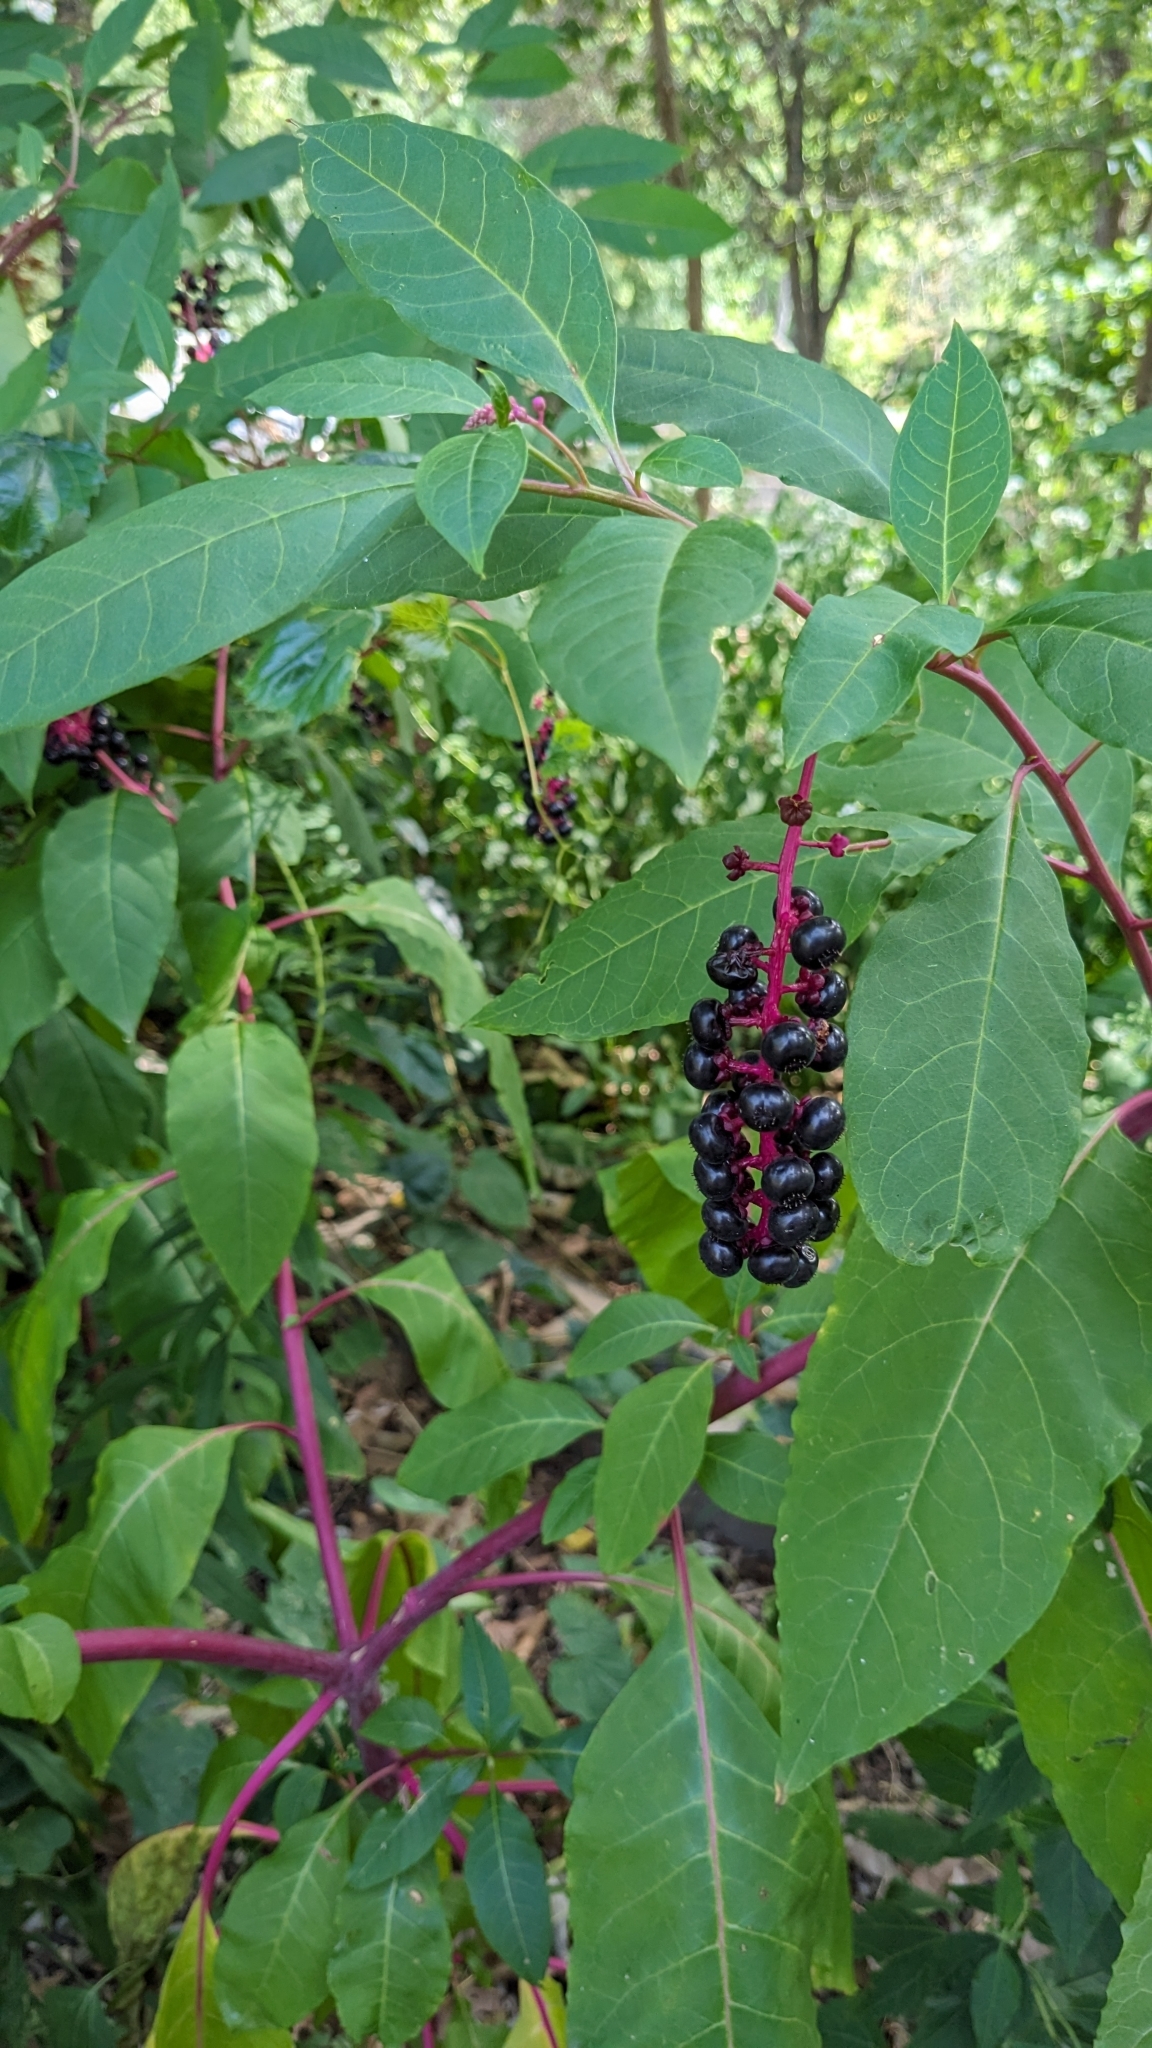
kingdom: Plantae
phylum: Tracheophyta
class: Magnoliopsida
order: Caryophyllales
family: Phytolaccaceae
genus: Phytolacca
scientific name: Phytolacca americana
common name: American pokeweed
